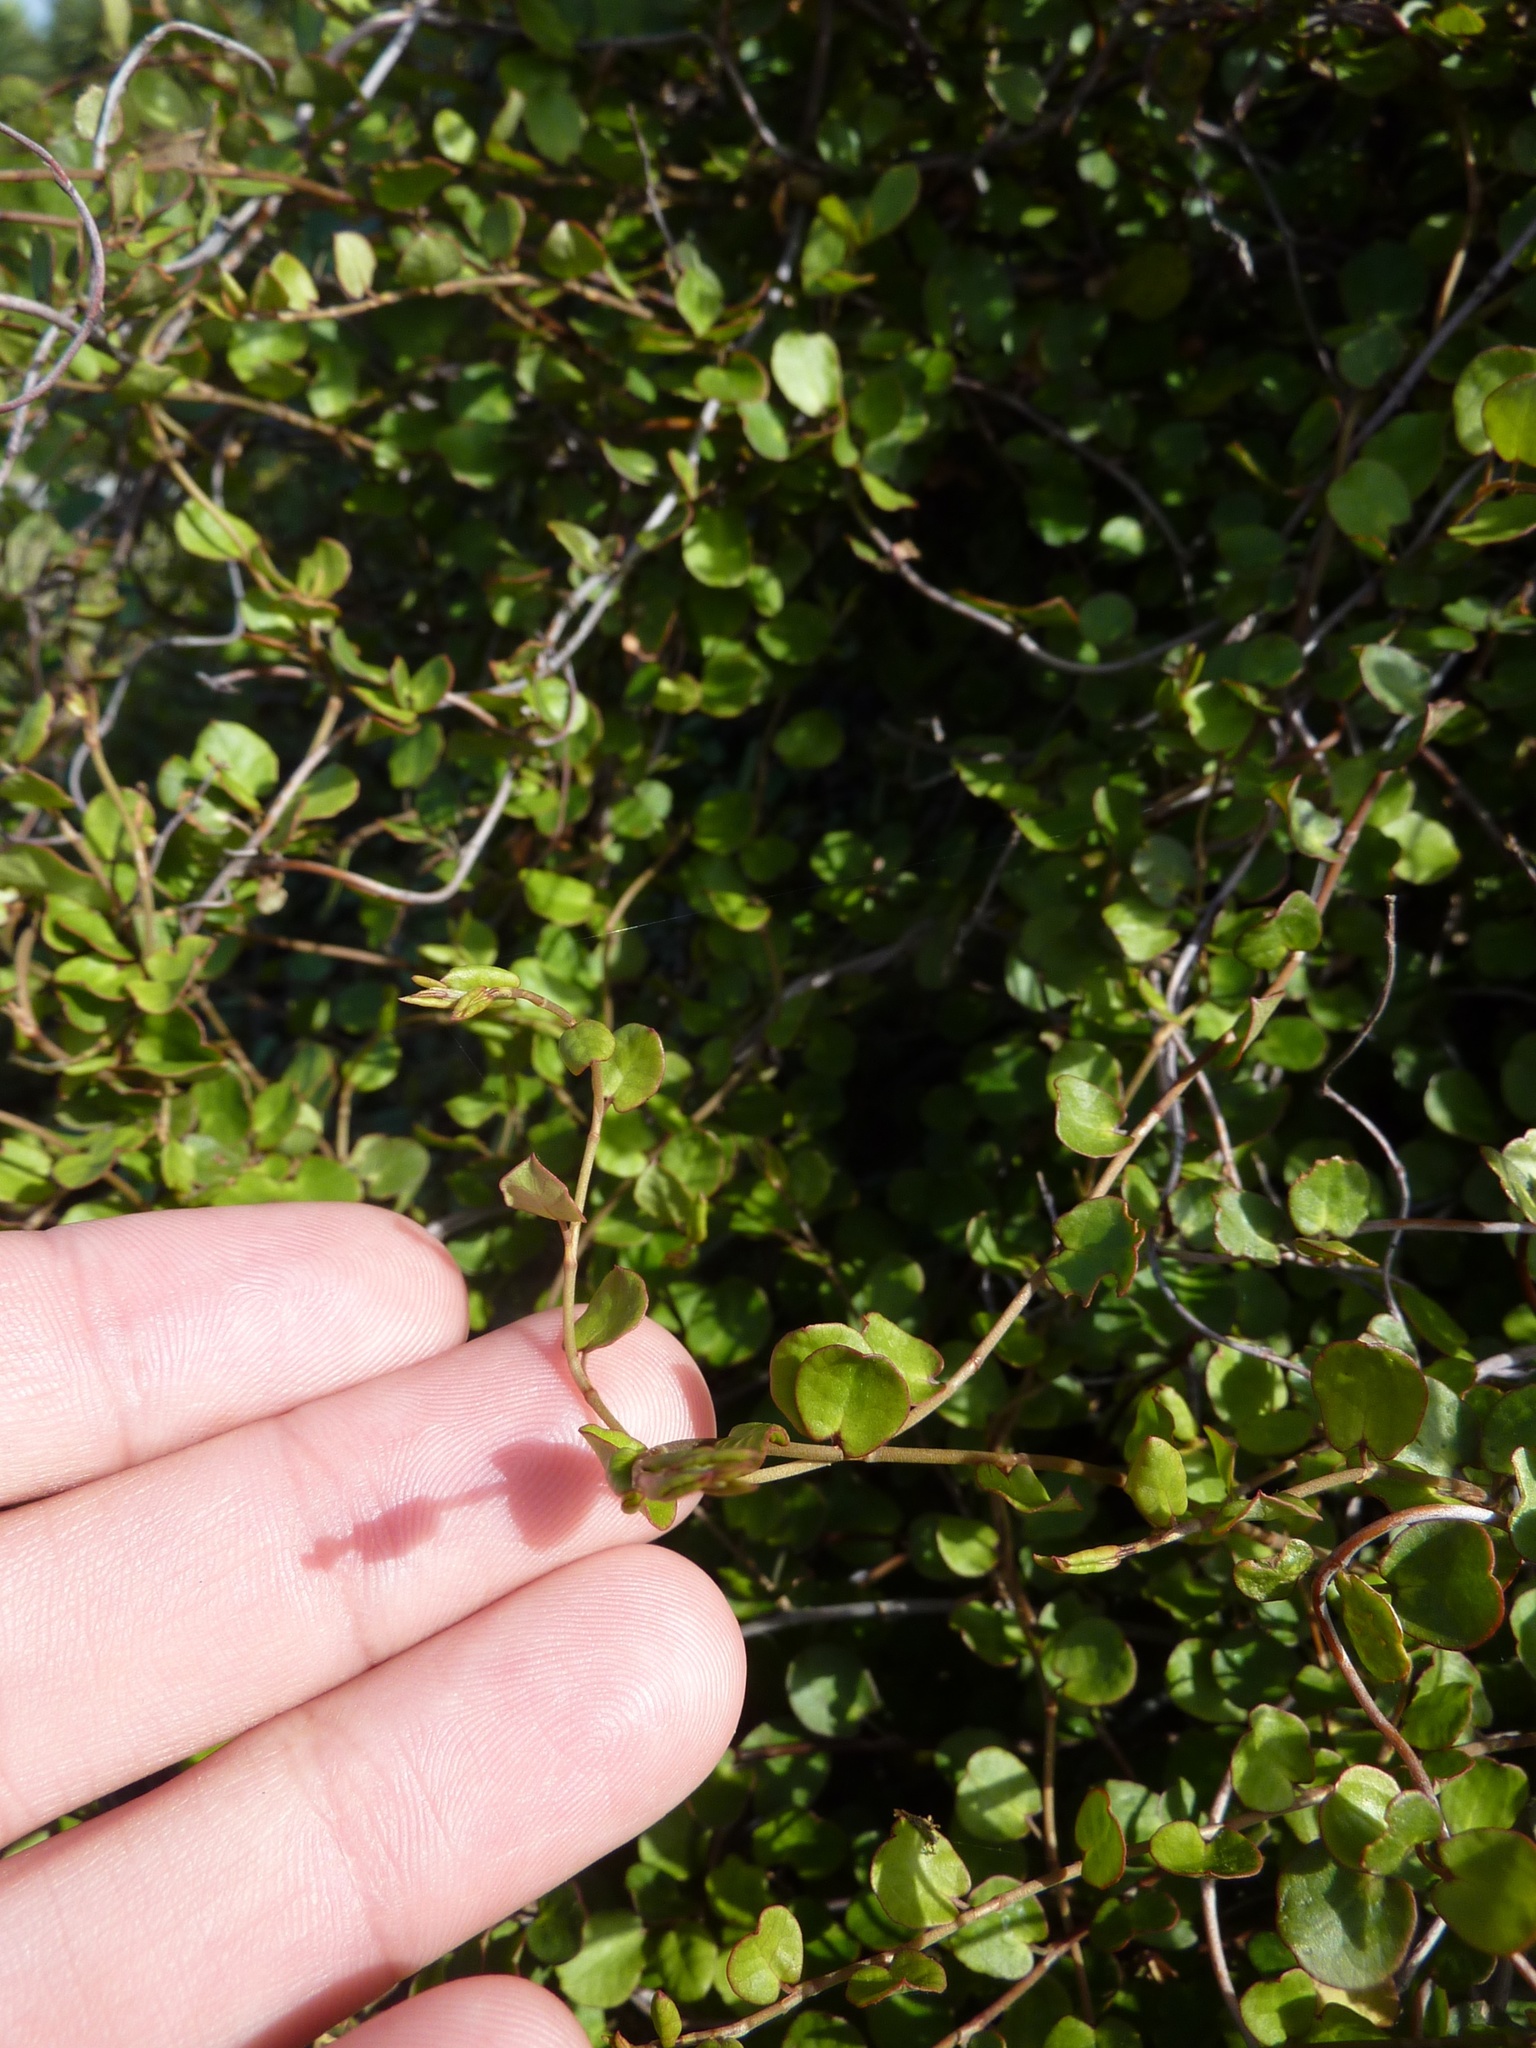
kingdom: Plantae
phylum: Tracheophyta
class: Magnoliopsida
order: Caryophyllales
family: Polygonaceae
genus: Muehlenbeckia
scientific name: Muehlenbeckia complexa
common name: Wireplant
